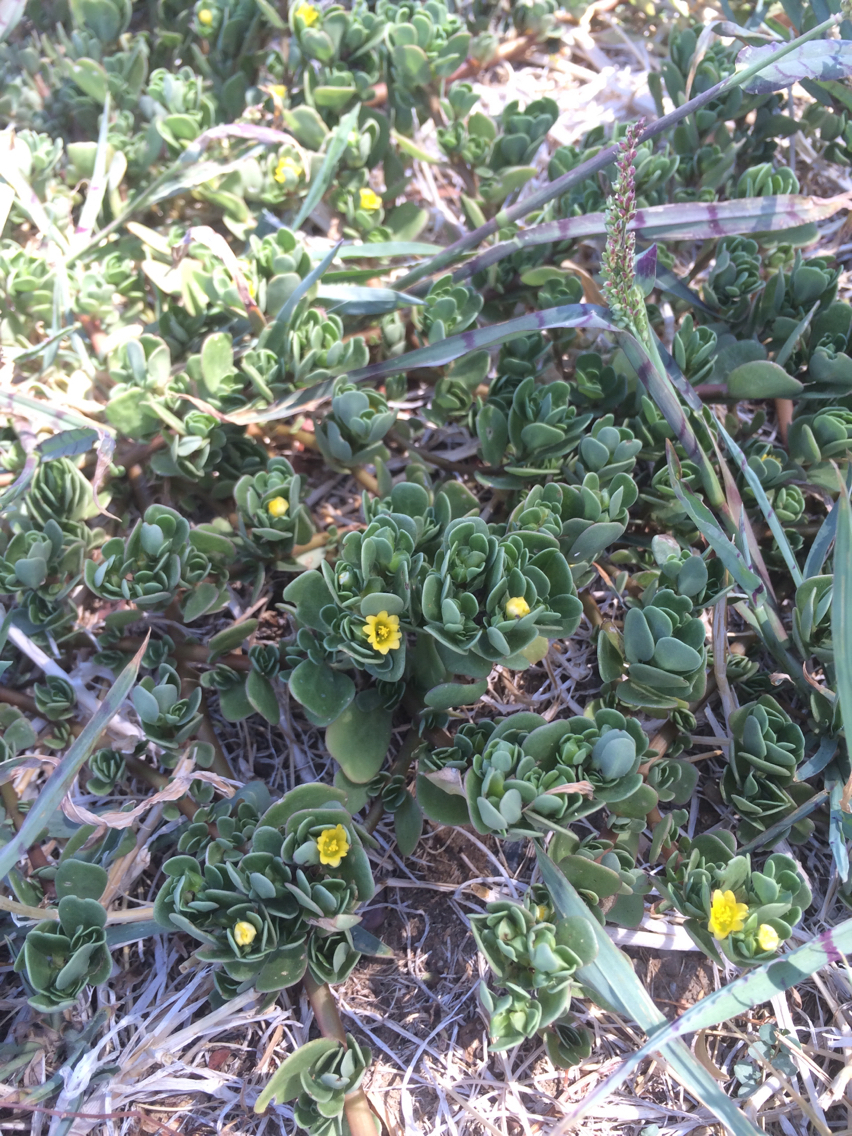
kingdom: Plantae
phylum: Tracheophyta
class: Magnoliopsida
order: Caryophyllales
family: Portulacaceae
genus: Portulaca
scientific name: Portulaca oleracea
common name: Common purslane
